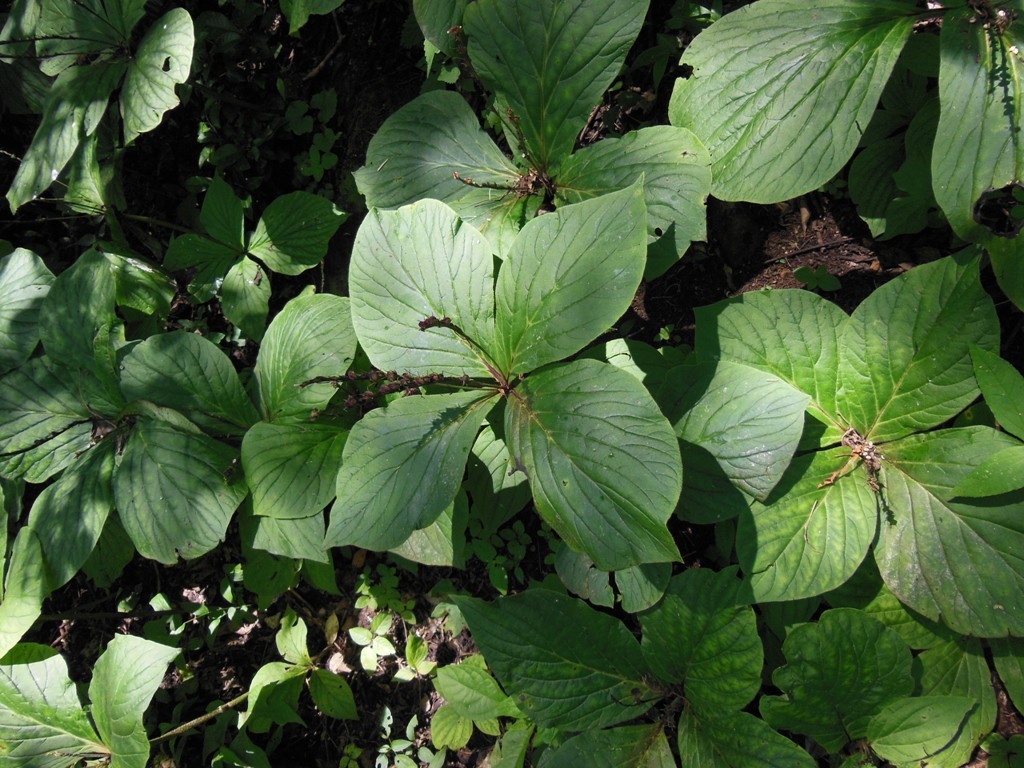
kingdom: Plantae
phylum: Tracheophyta
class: Magnoliopsida
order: Gentianales
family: Loganiaceae
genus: Spigelia
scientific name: Spigelia splendens
